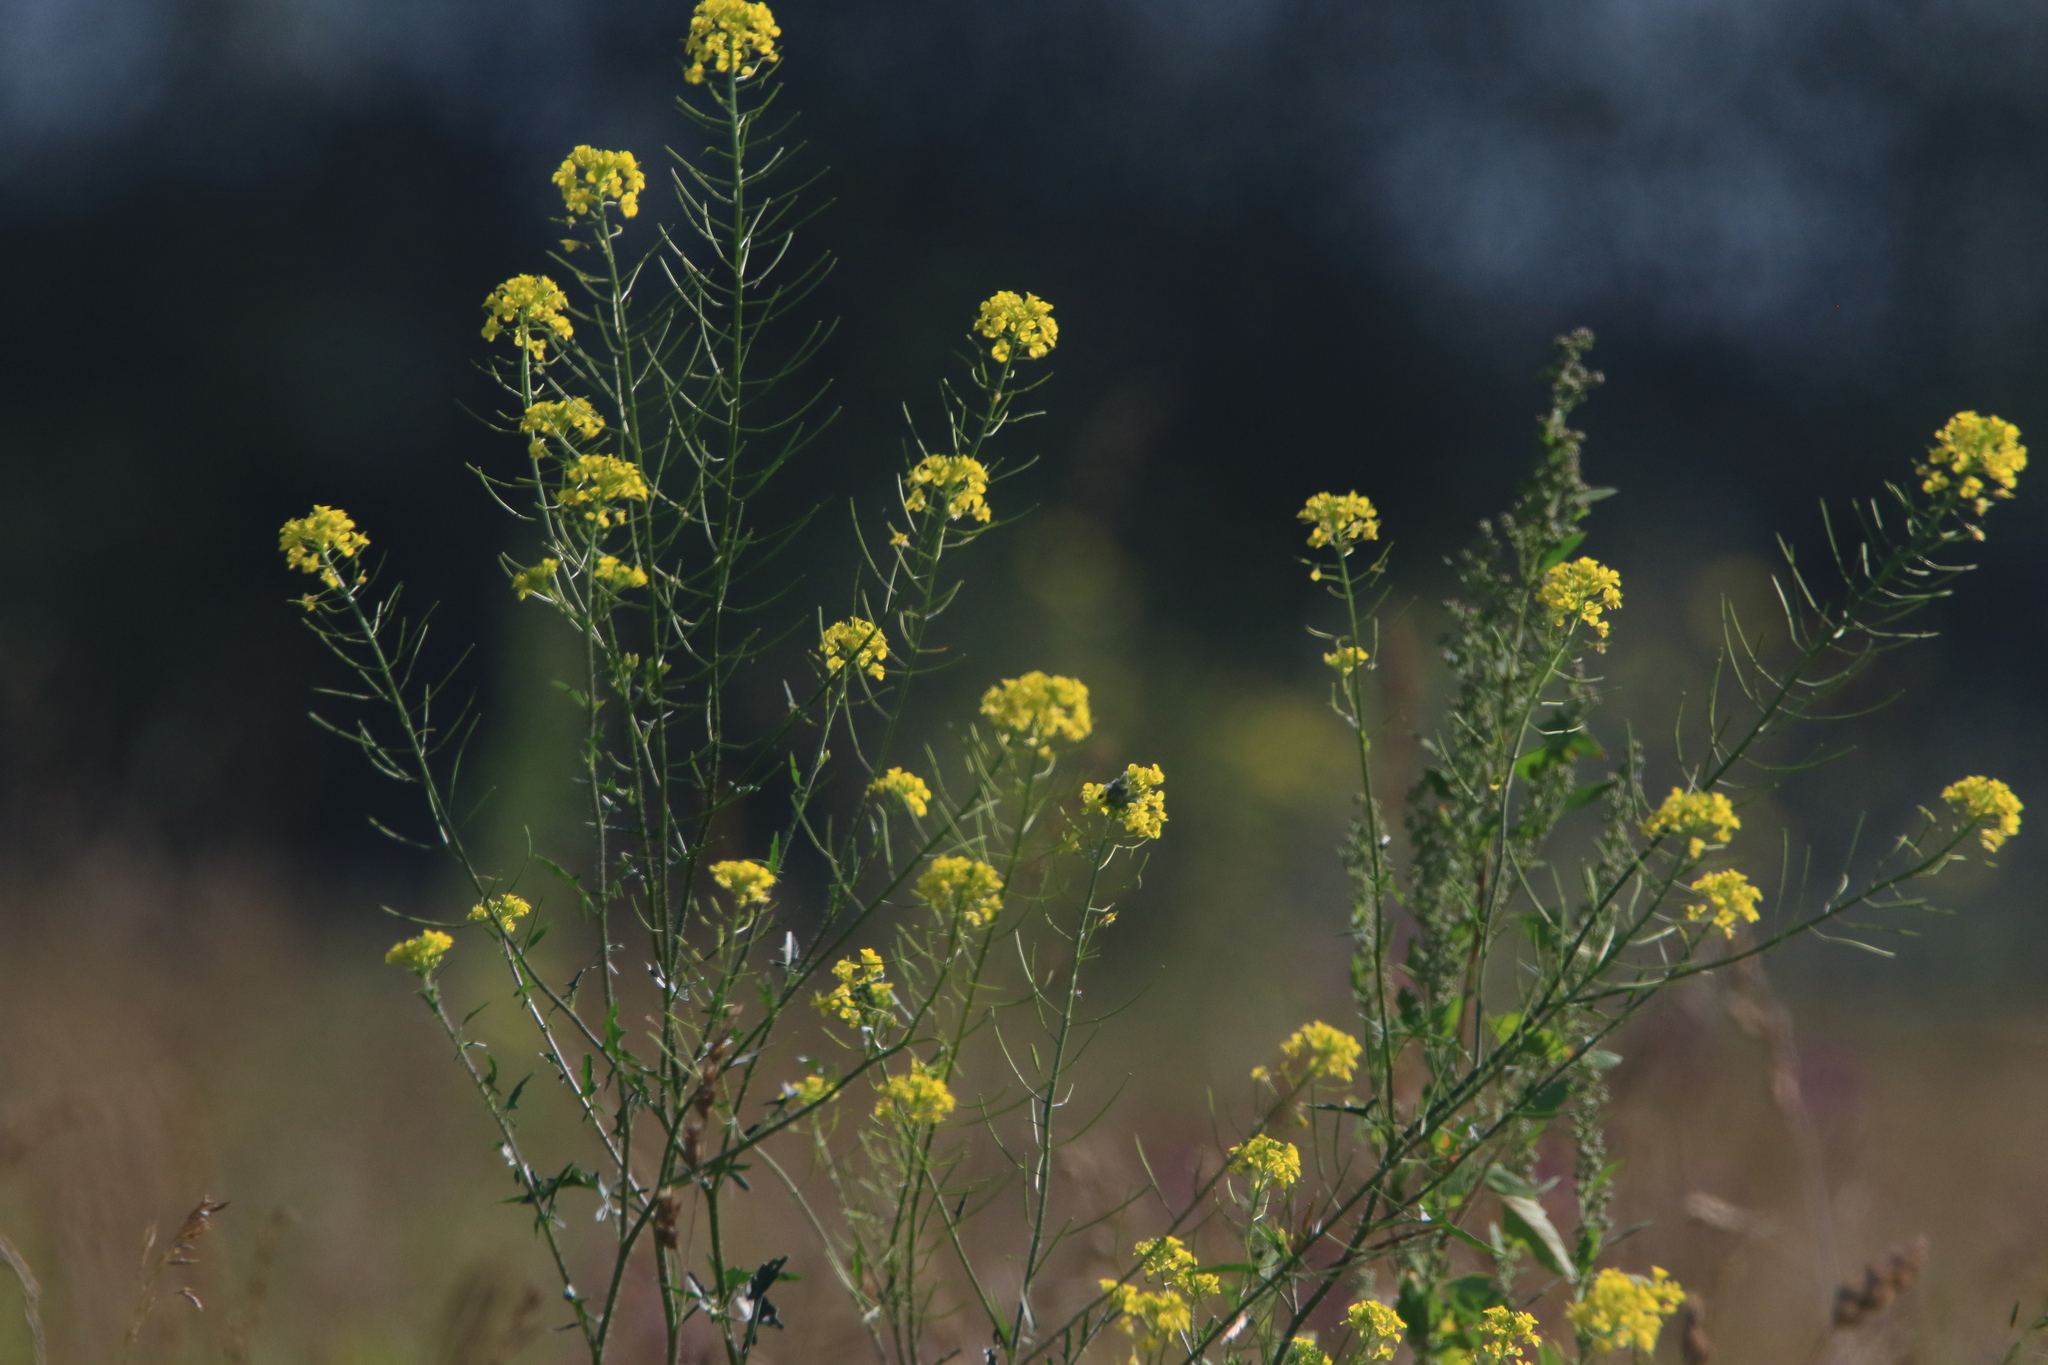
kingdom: Plantae
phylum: Tracheophyta
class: Magnoliopsida
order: Brassicales
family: Brassicaceae
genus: Sisymbrium
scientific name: Sisymbrium loeselii
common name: False london-rocket
